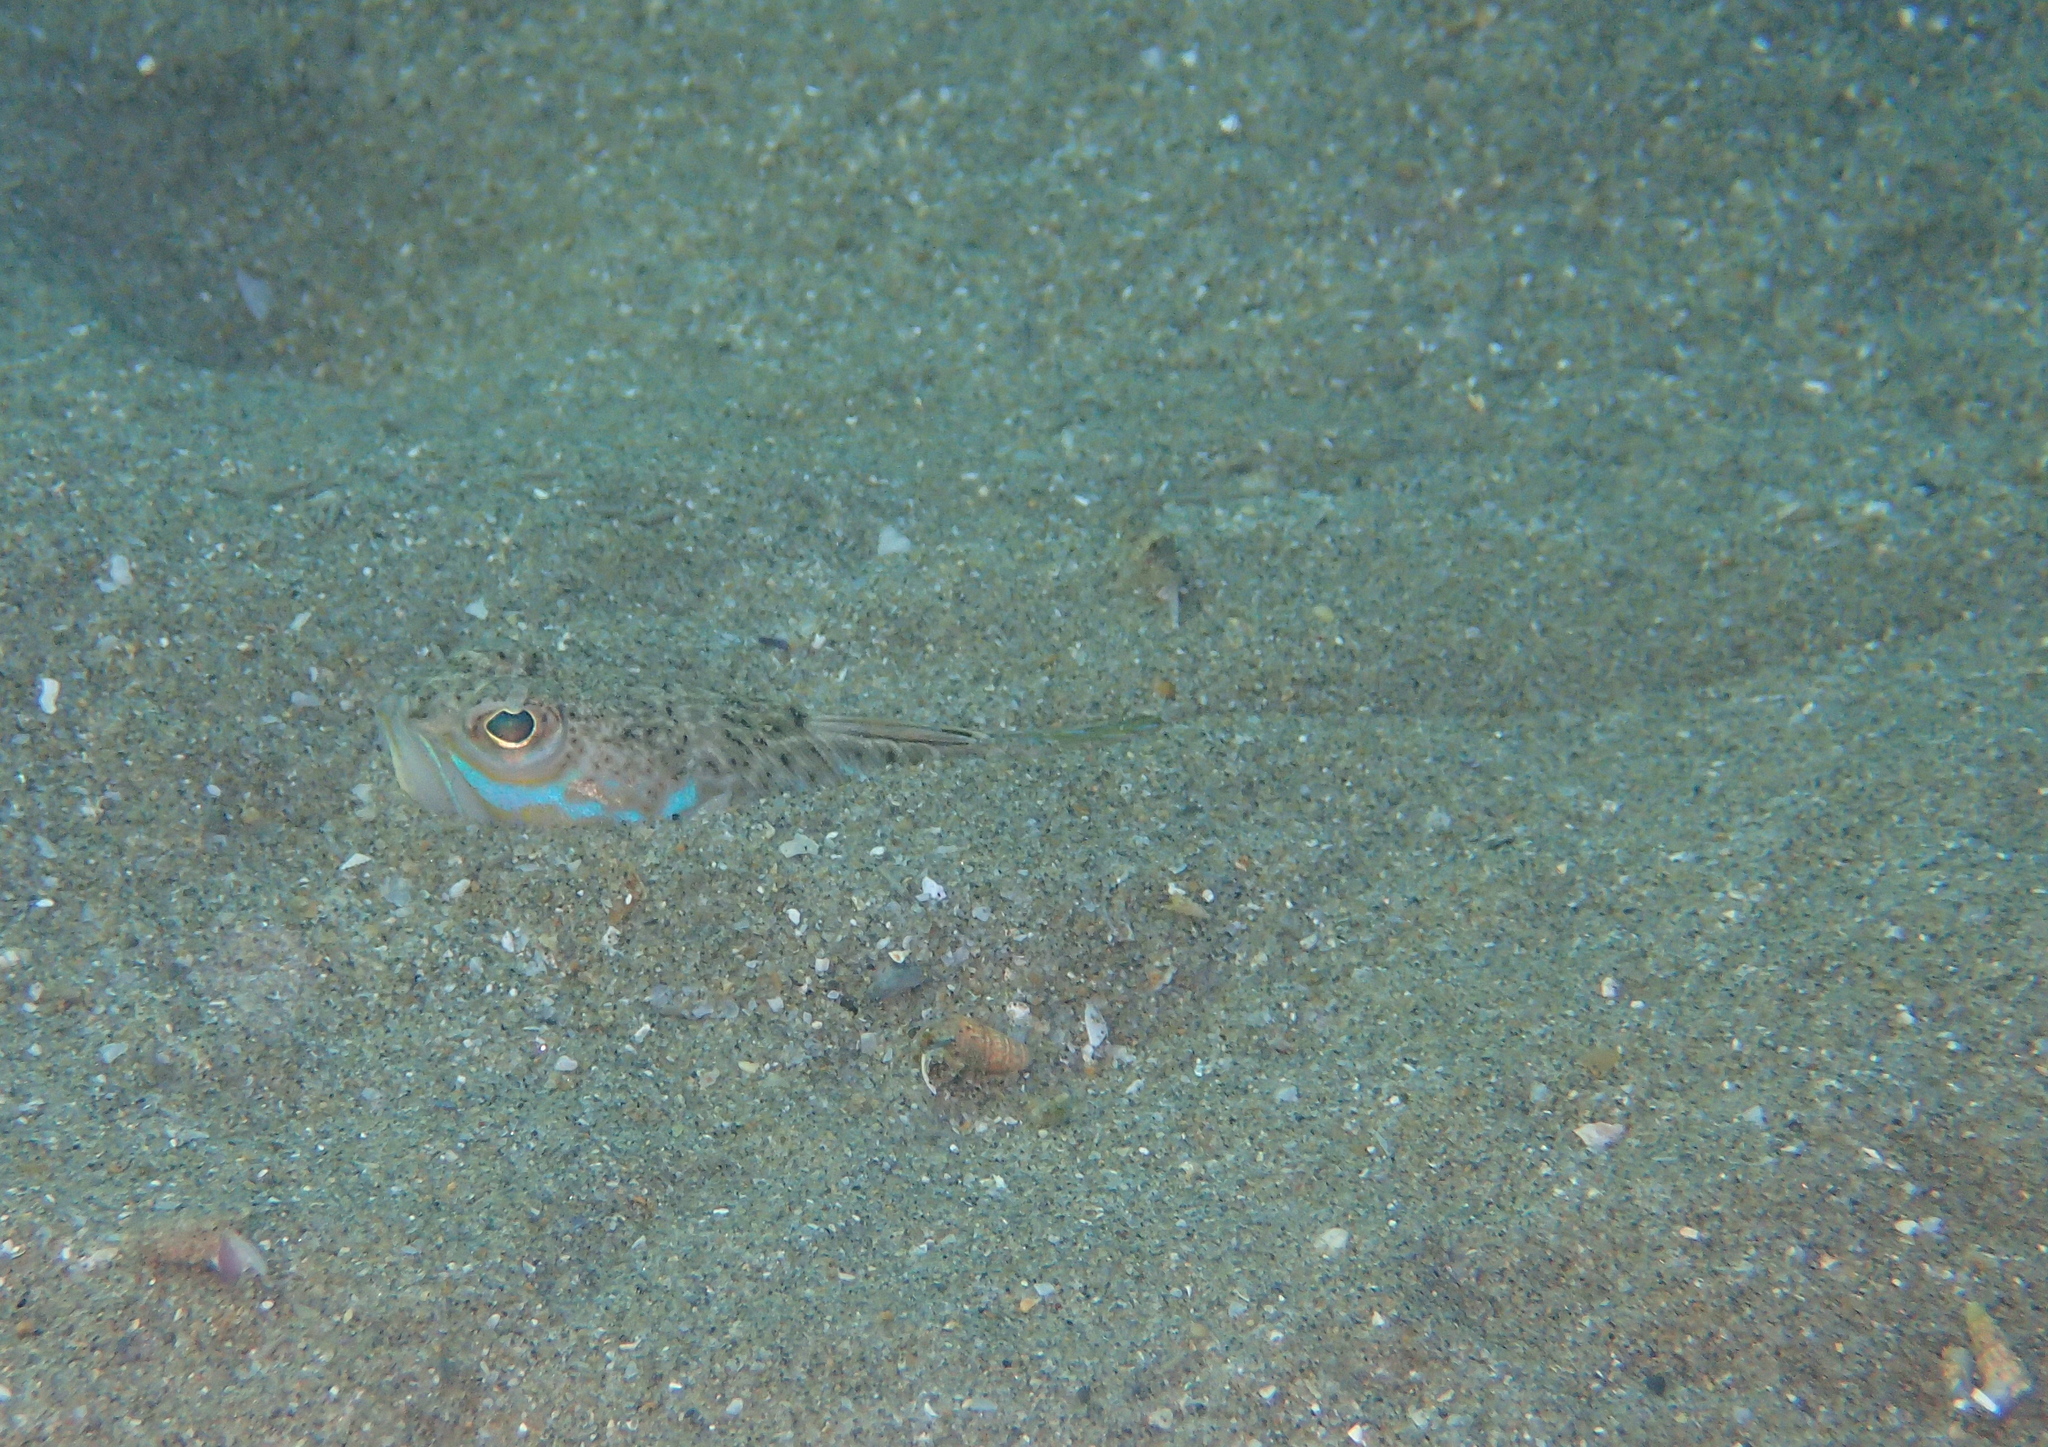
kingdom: Animalia
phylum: Chordata
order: Perciformes
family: Trachinidae
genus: Trachinus
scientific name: Trachinus draco
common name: Greater weever
